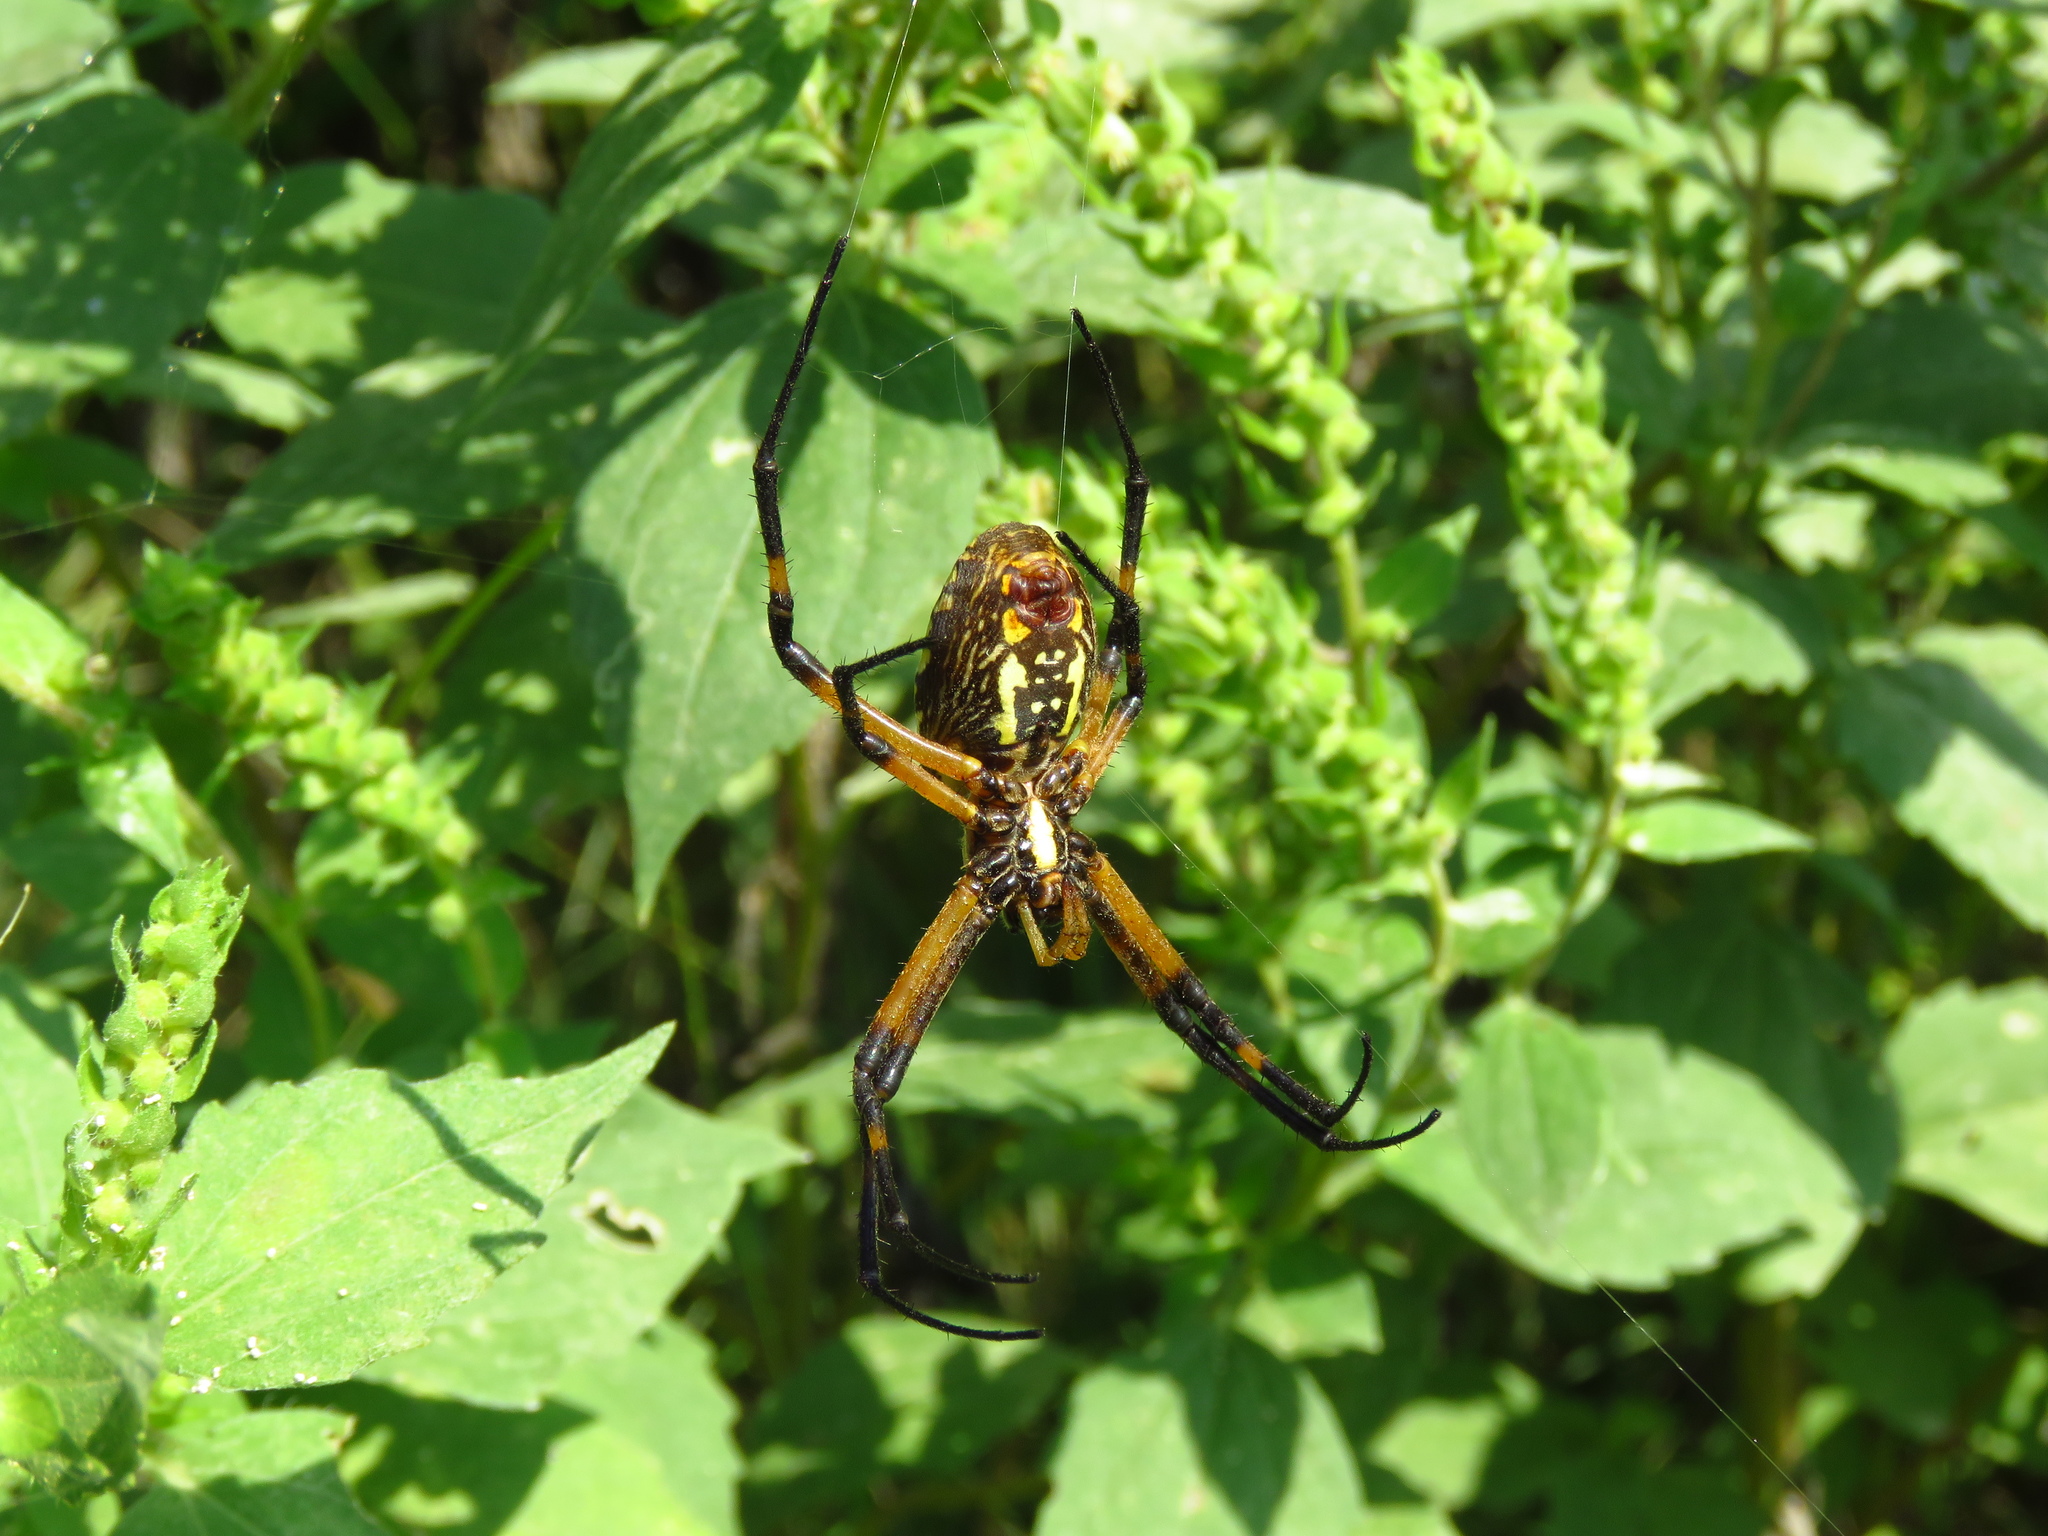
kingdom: Animalia
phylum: Arthropoda
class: Arachnida
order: Araneae
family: Araneidae
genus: Argiope
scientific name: Argiope aurantia
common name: Orb weavers
